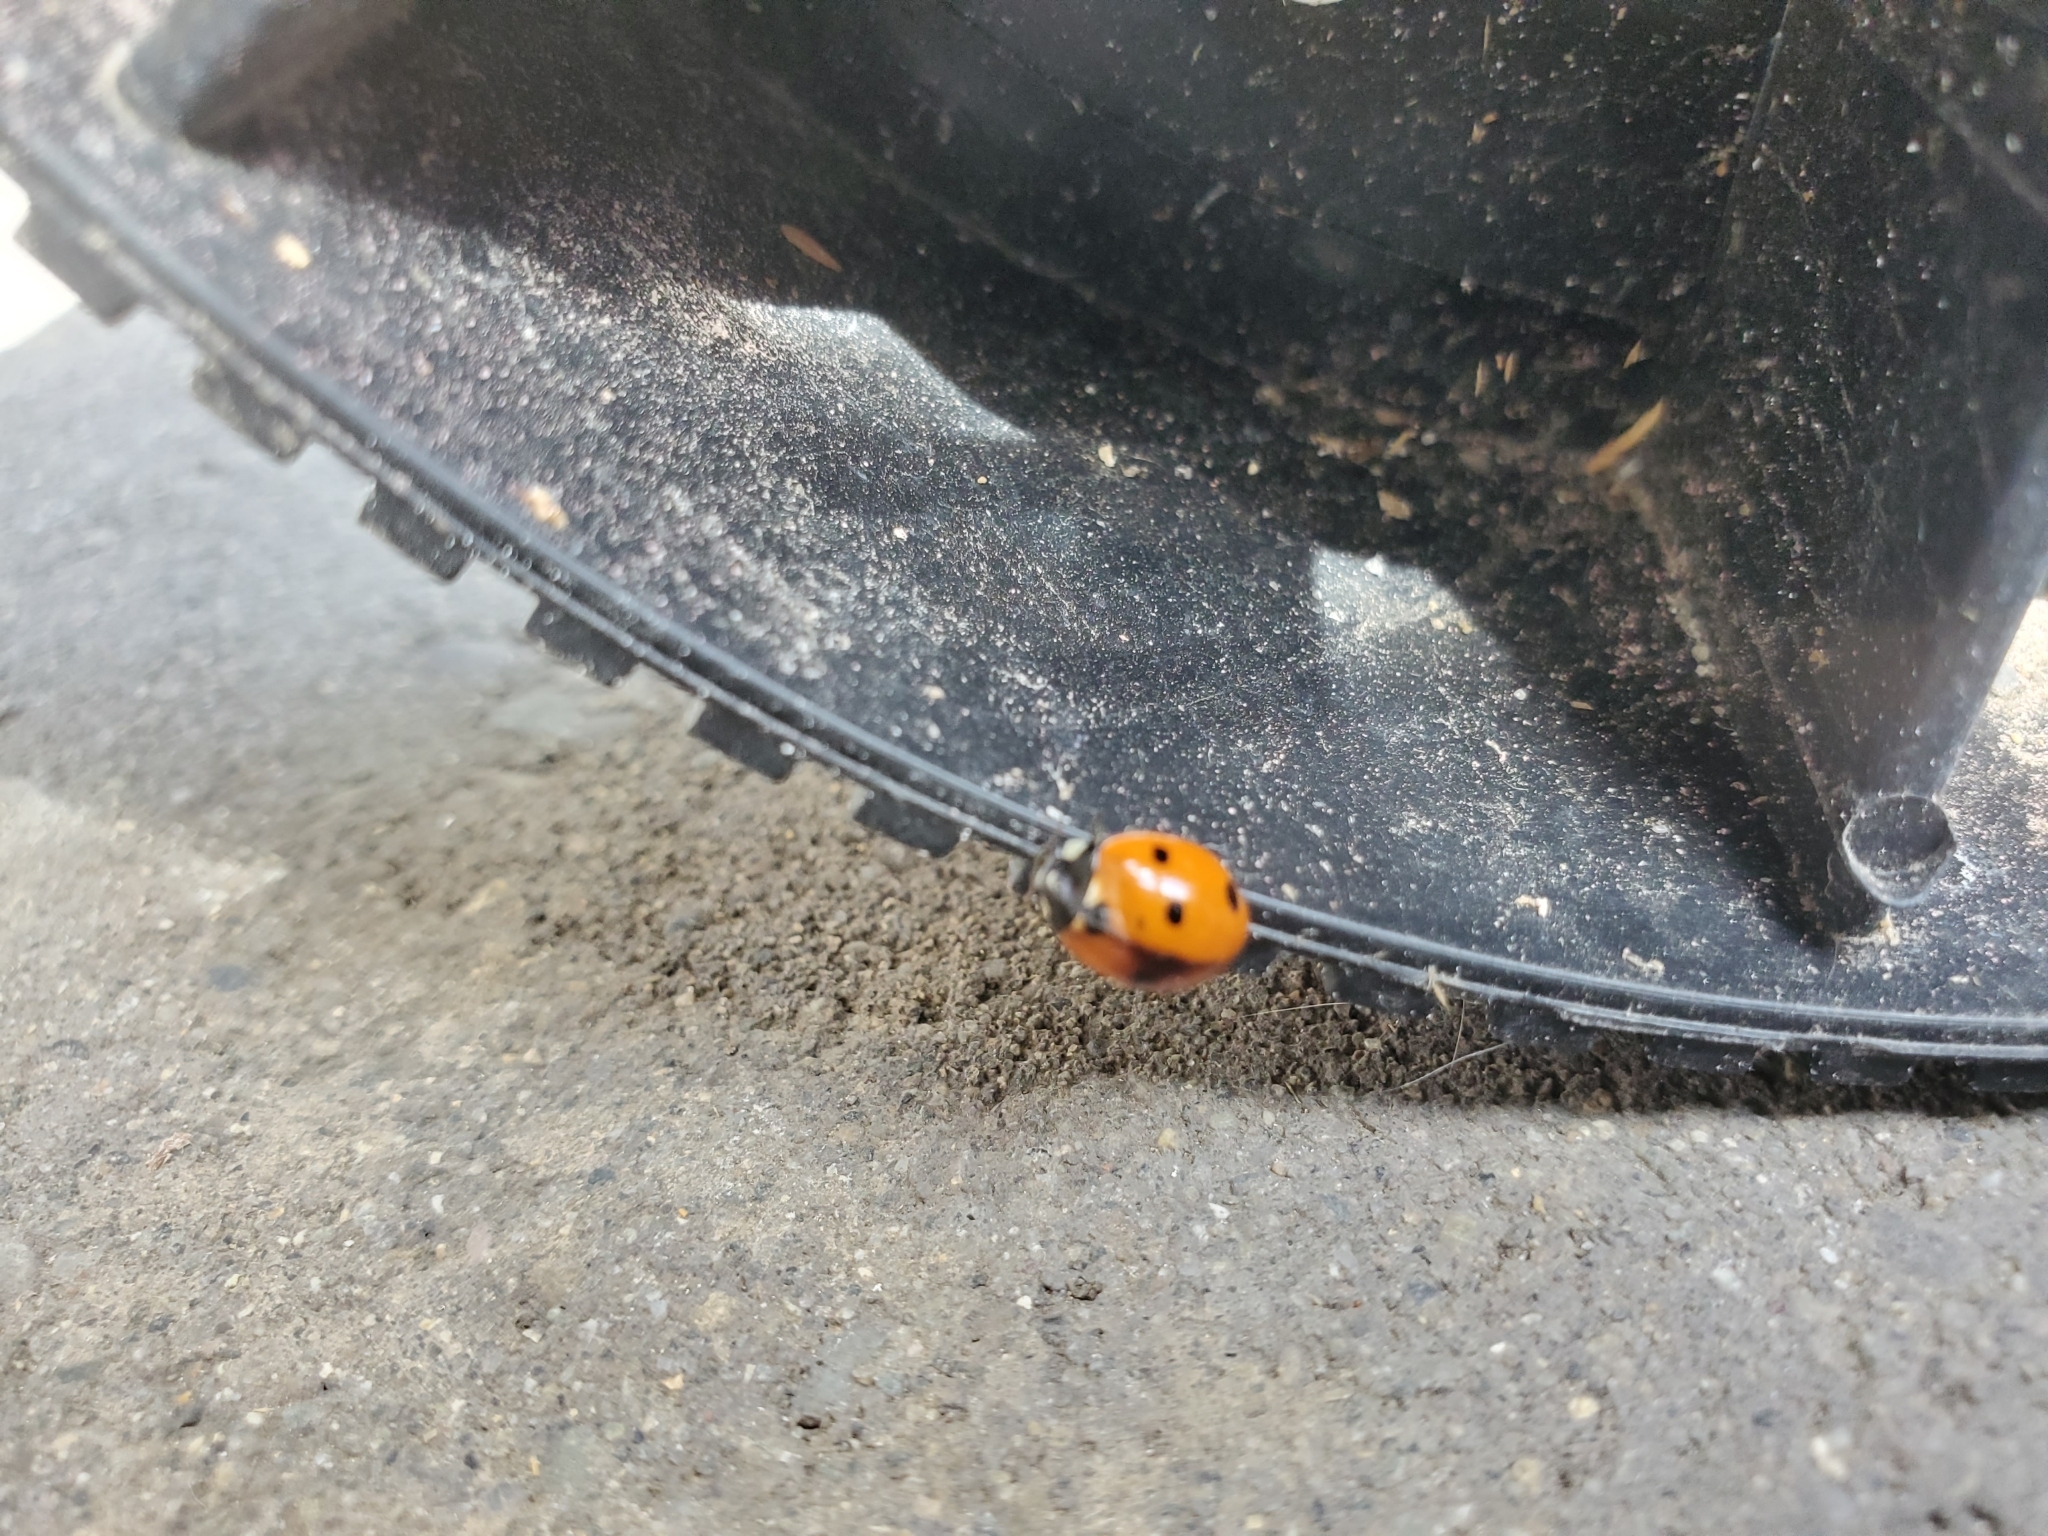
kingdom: Animalia
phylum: Arthropoda
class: Insecta
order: Coleoptera
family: Coccinellidae
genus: Coccinella
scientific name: Coccinella septempunctata
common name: Sevenspotted lady beetle
